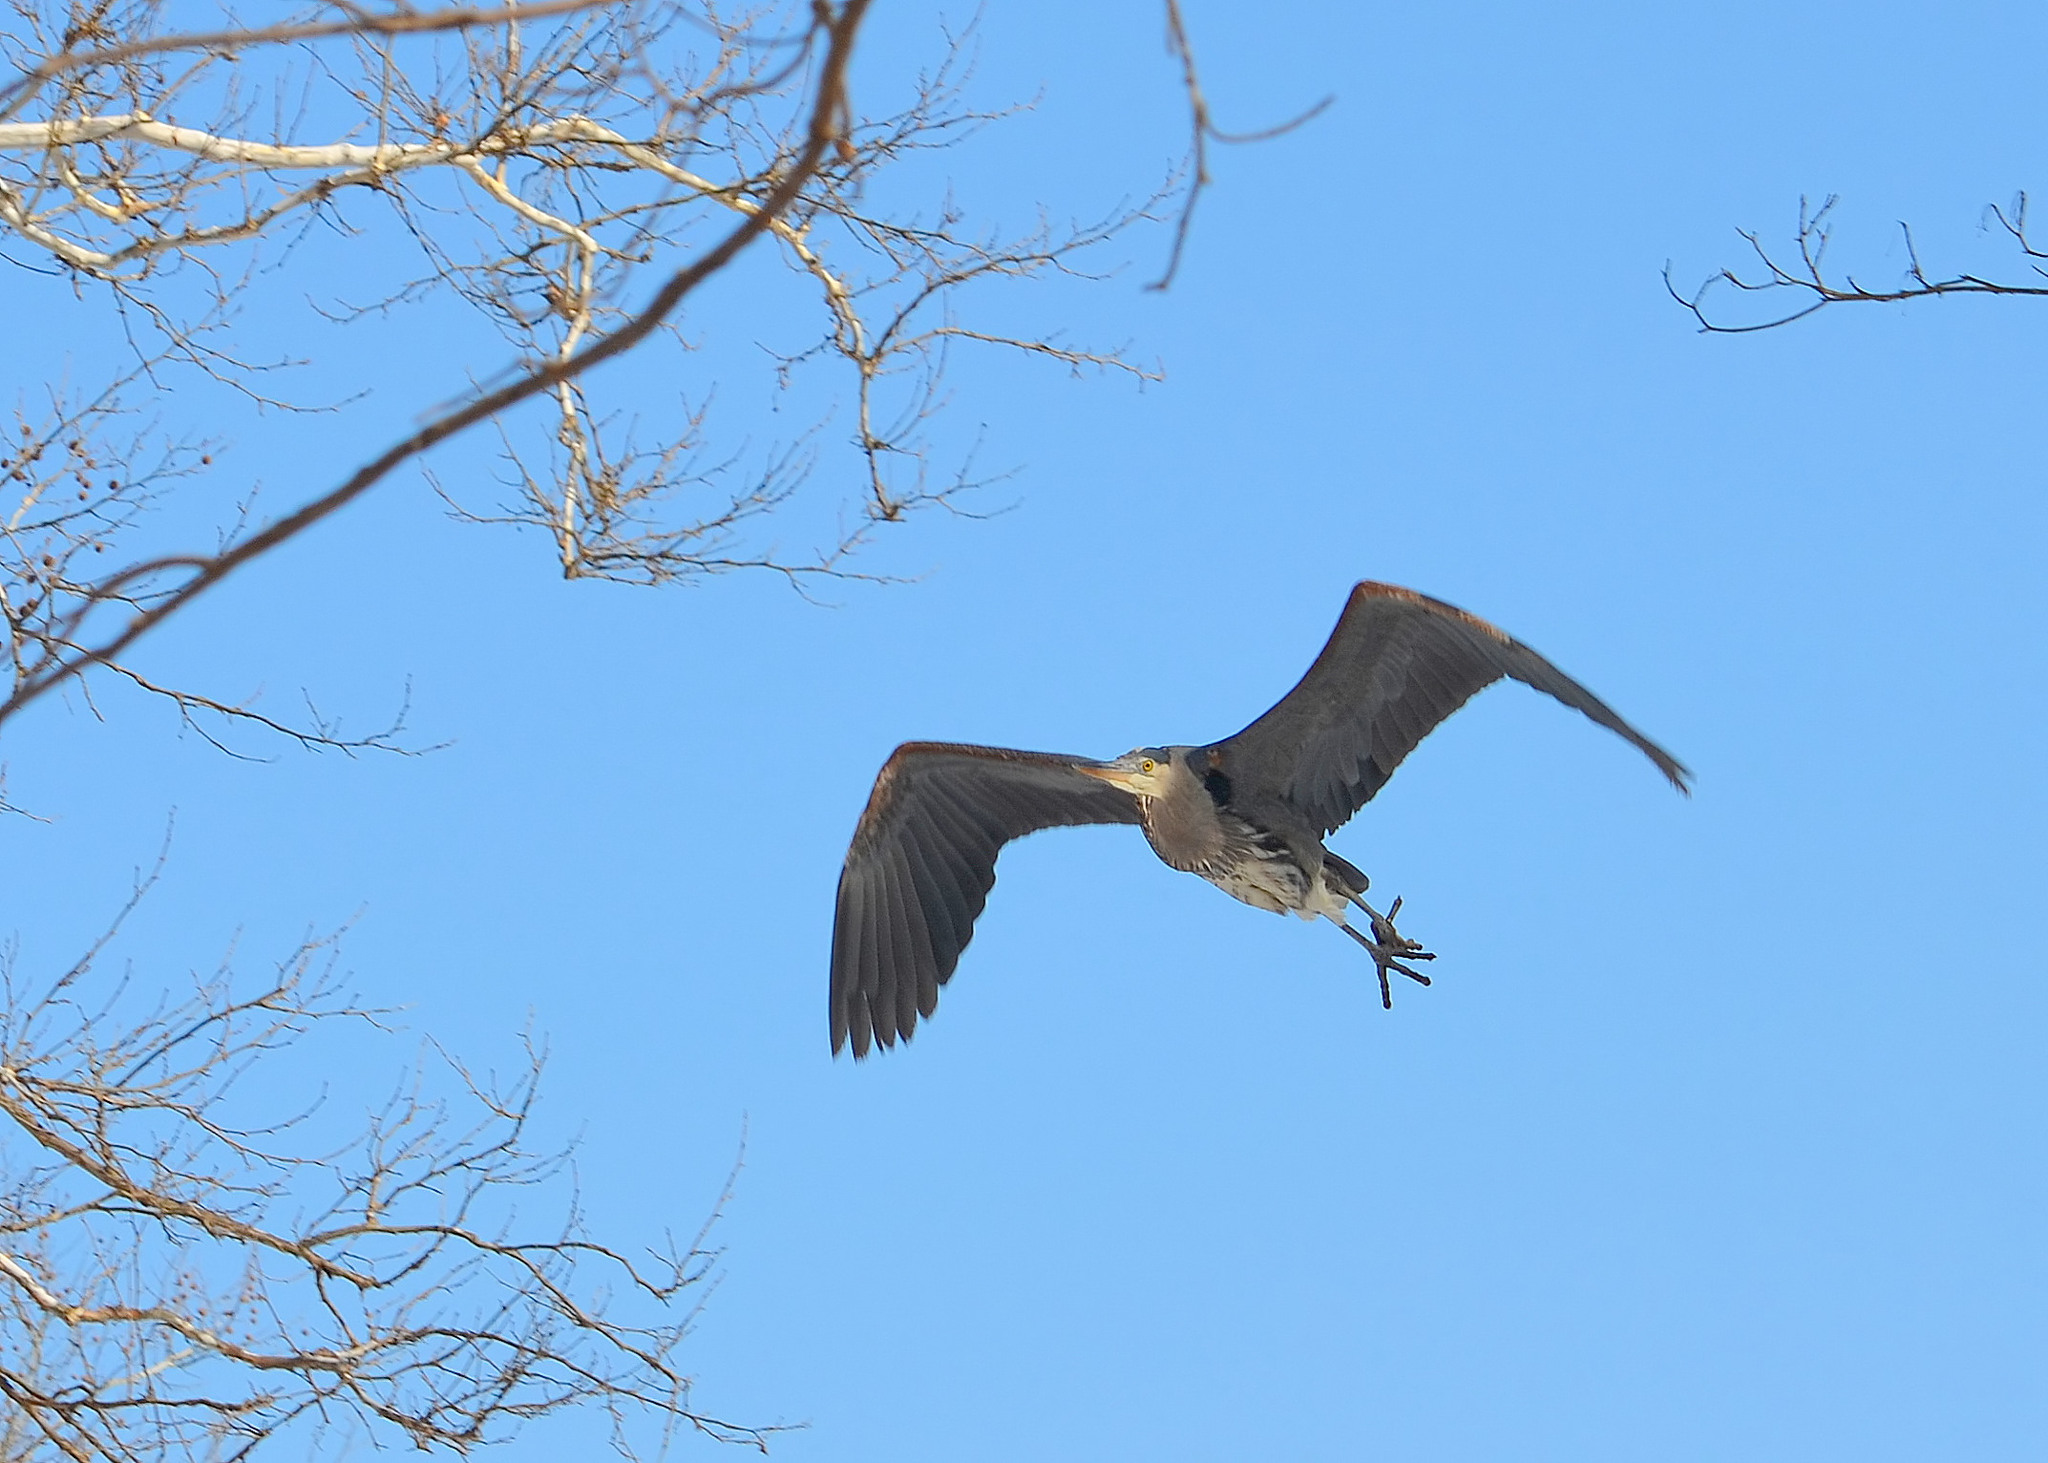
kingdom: Animalia
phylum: Chordata
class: Aves
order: Pelecaniformes
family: Ardeidae
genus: Ardea
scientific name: Ardea herodias
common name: Great blue heron
